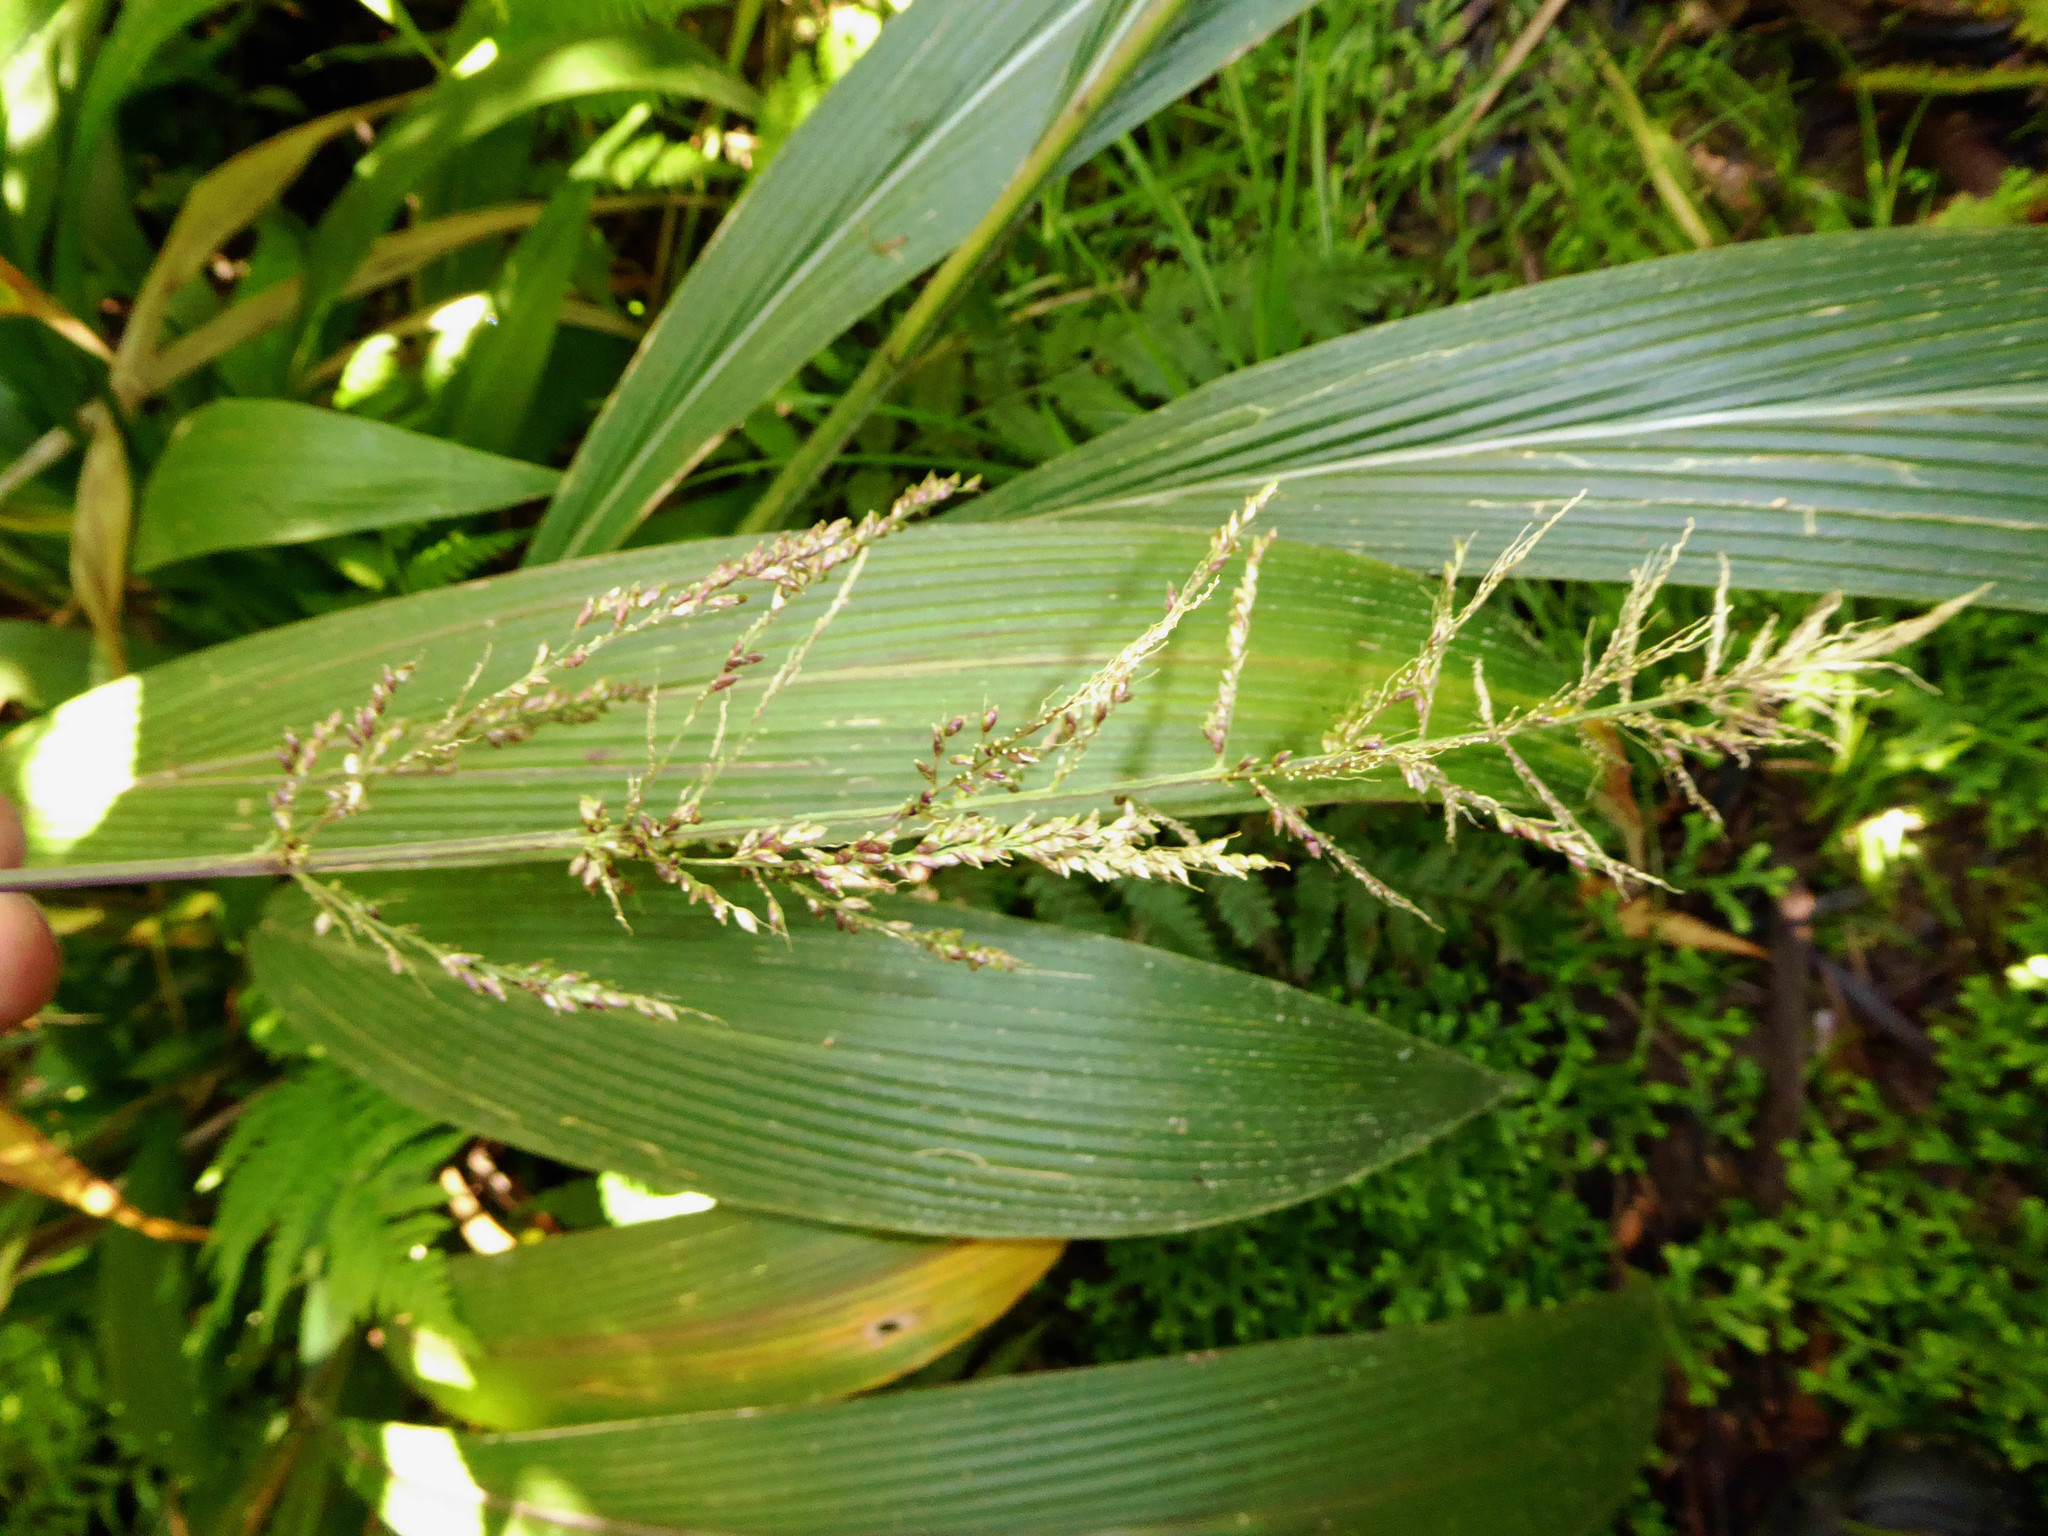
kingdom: Plantae
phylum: Tracheophyta
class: Liliopsida
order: Poales
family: Poaceae
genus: Setaria
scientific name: Setaria palmifolia
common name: Broadleaved bristlegrass
